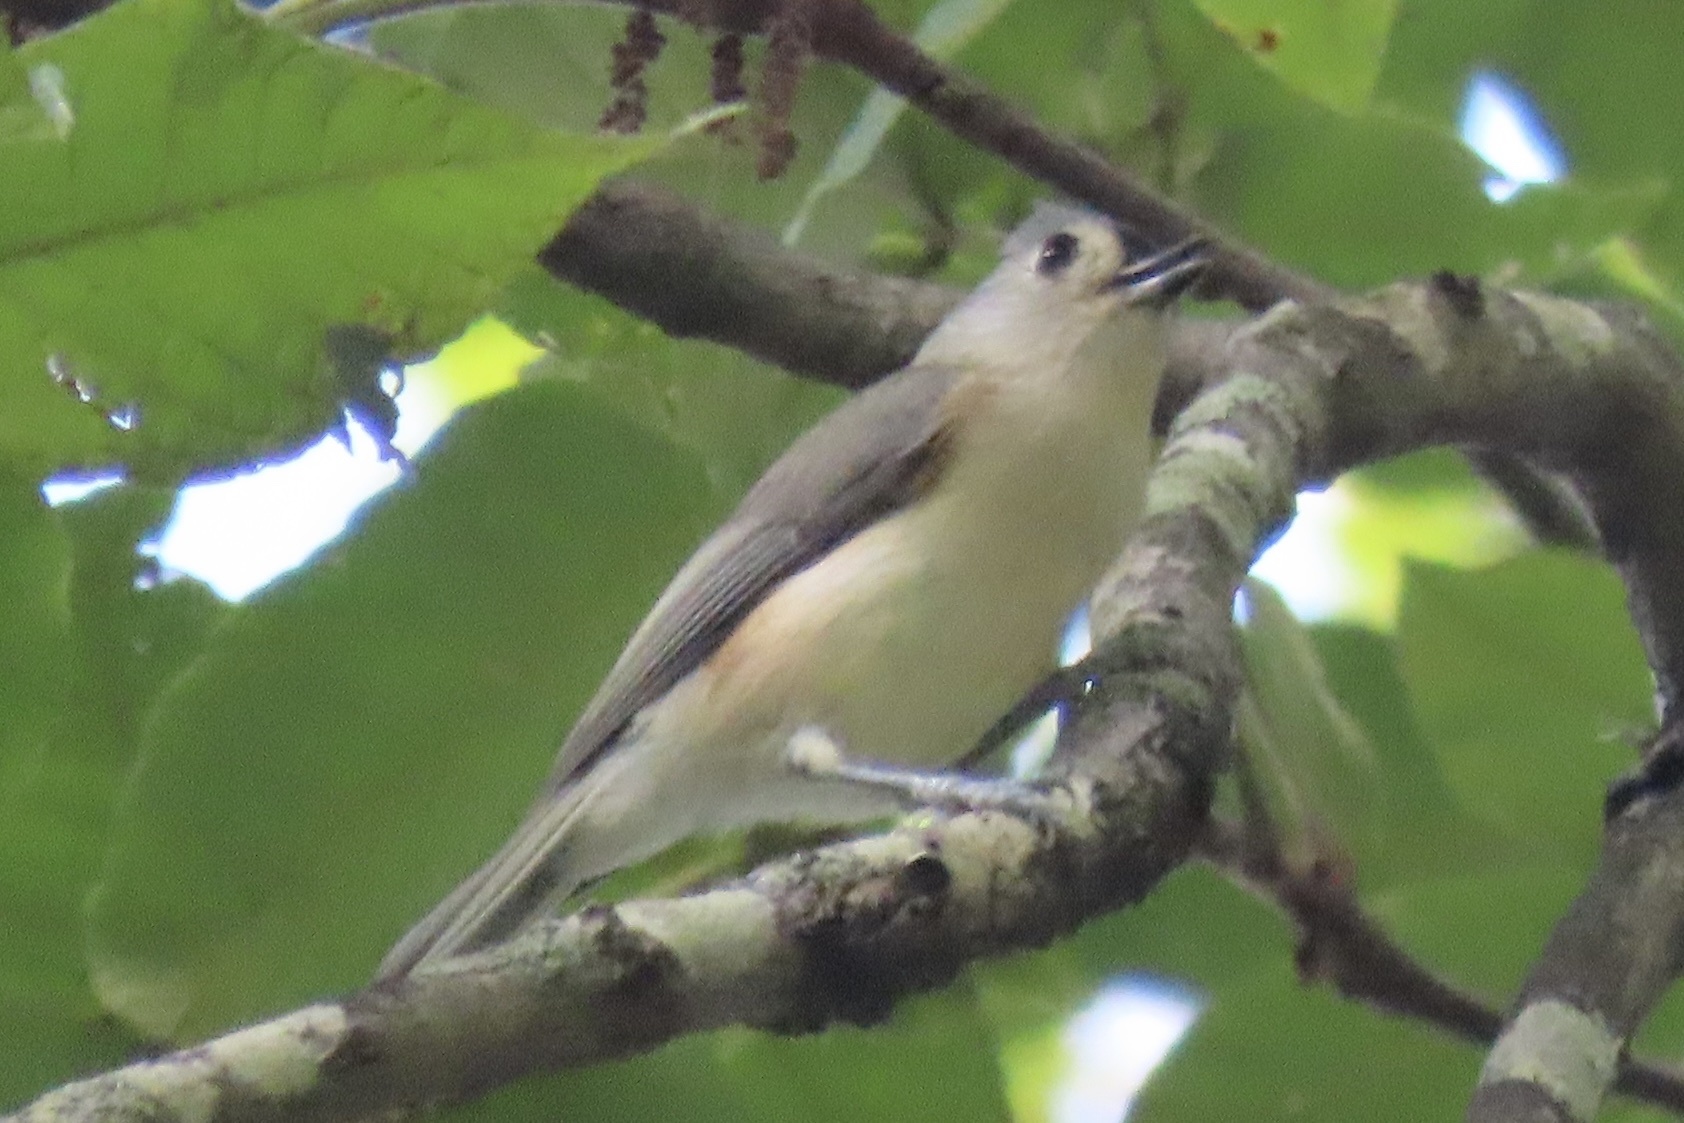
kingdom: Animalia
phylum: Chordata
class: Aves
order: Passeriformes
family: Paridae
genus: Baeolophus
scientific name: Baeolophus bicolor
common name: Tufted titmouse
